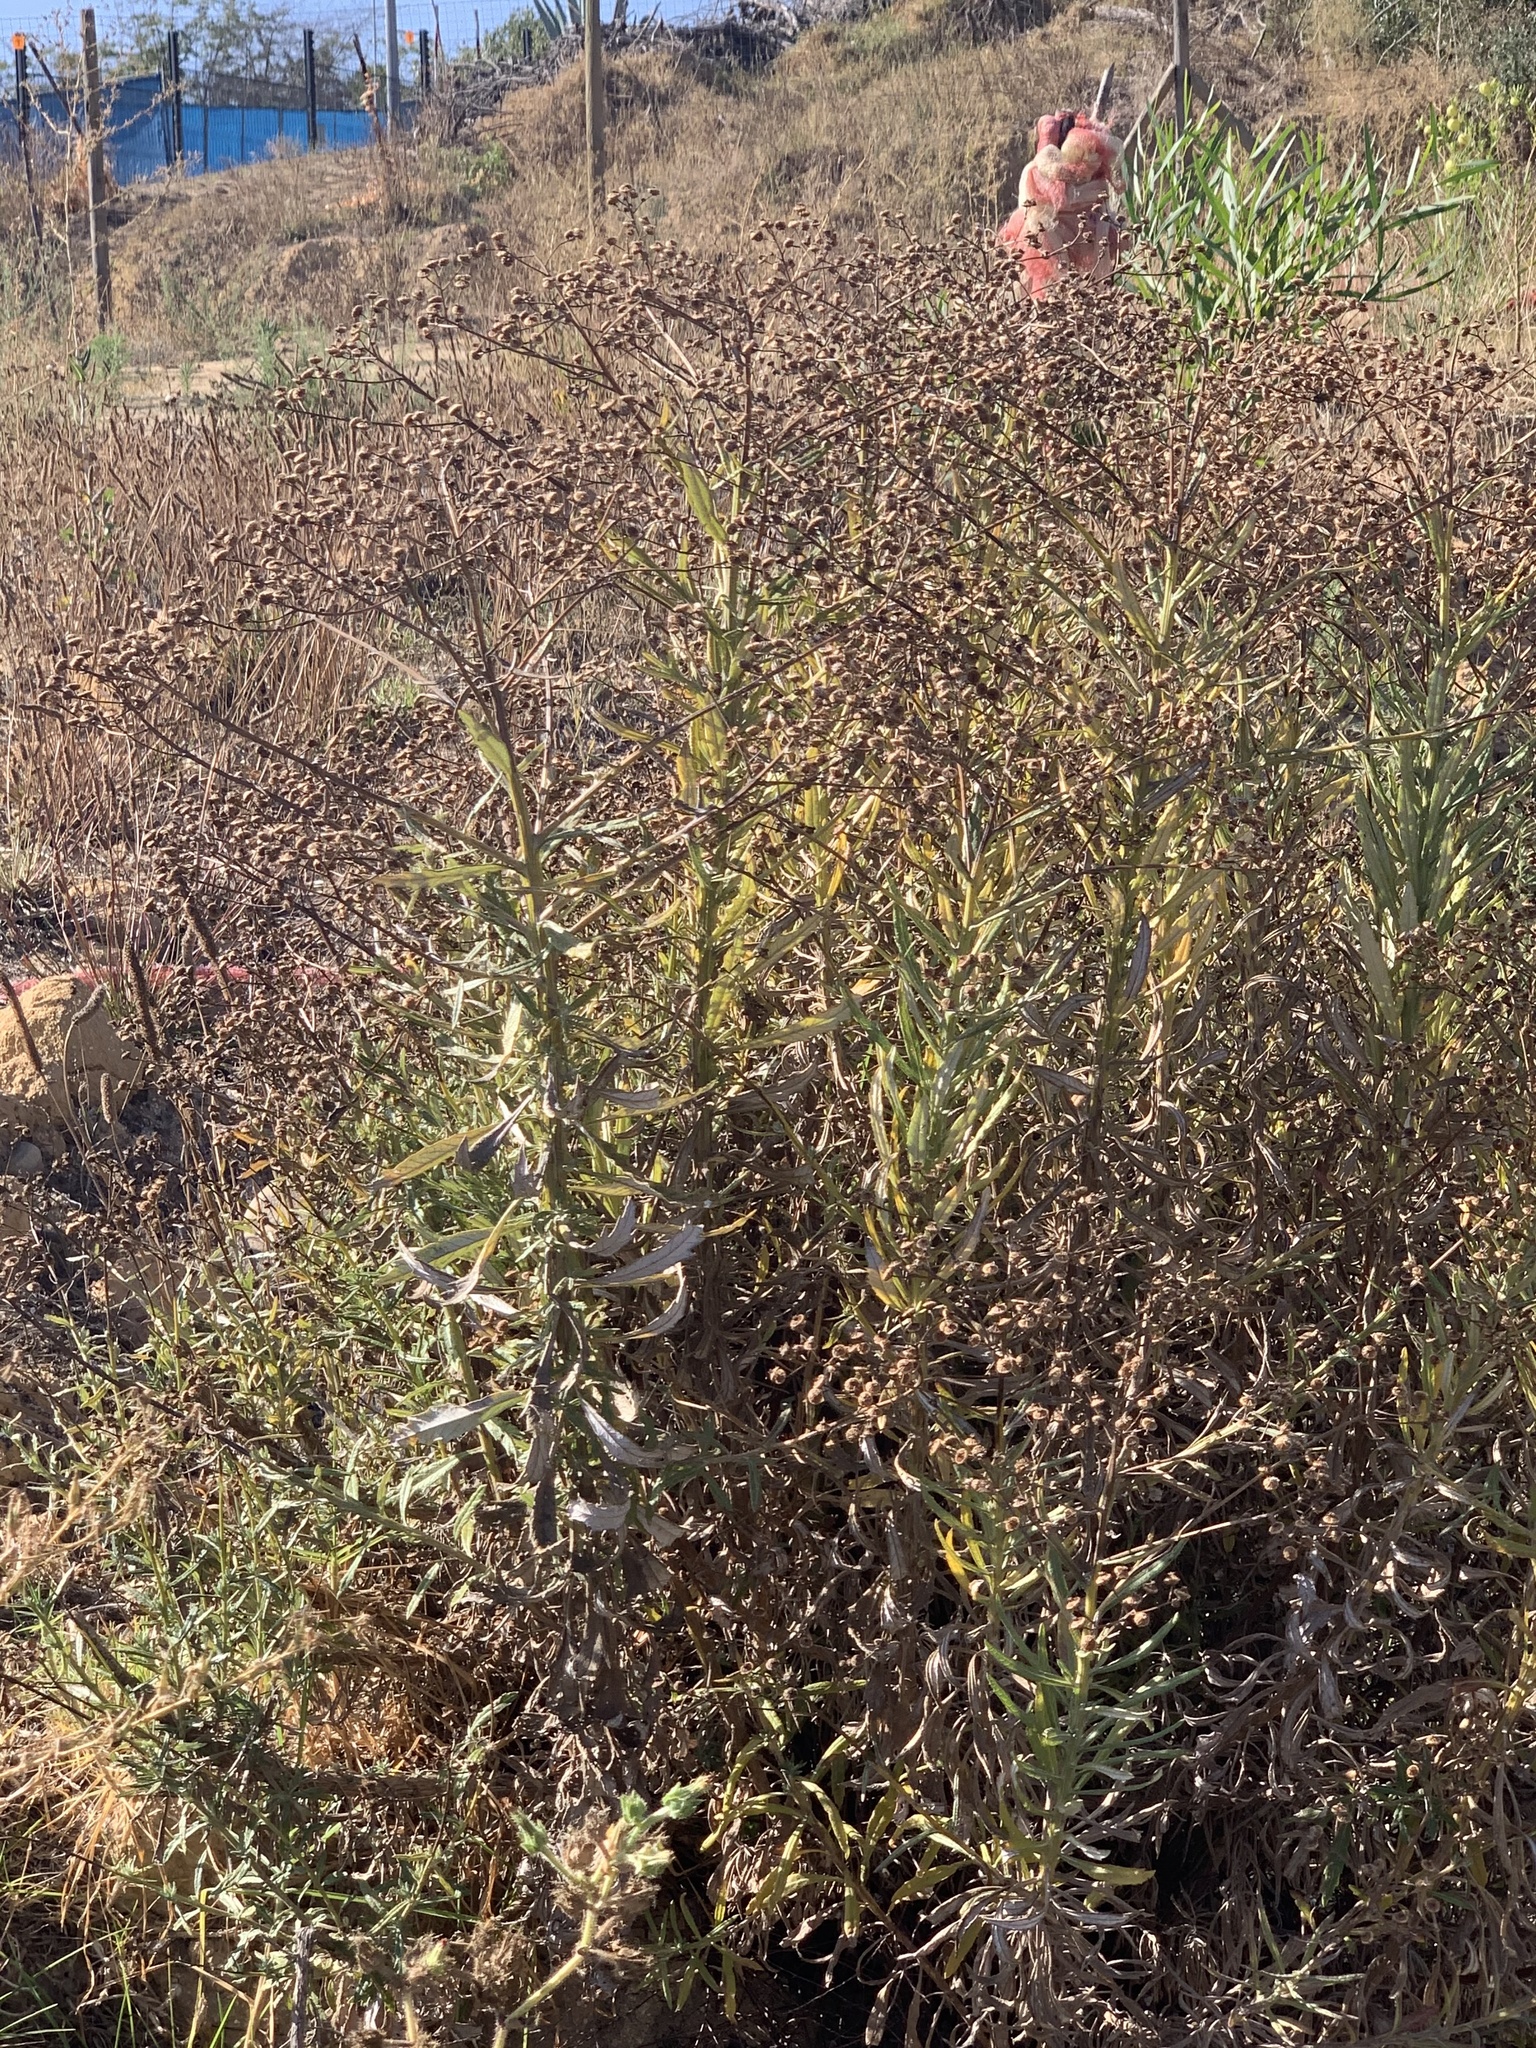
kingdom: Plantae
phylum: Tracheophyta
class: Magnoliopsida
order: Asterales
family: Asteraceae
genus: Senecio
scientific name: Senecio pterophorus
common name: Shoddy ragwort
